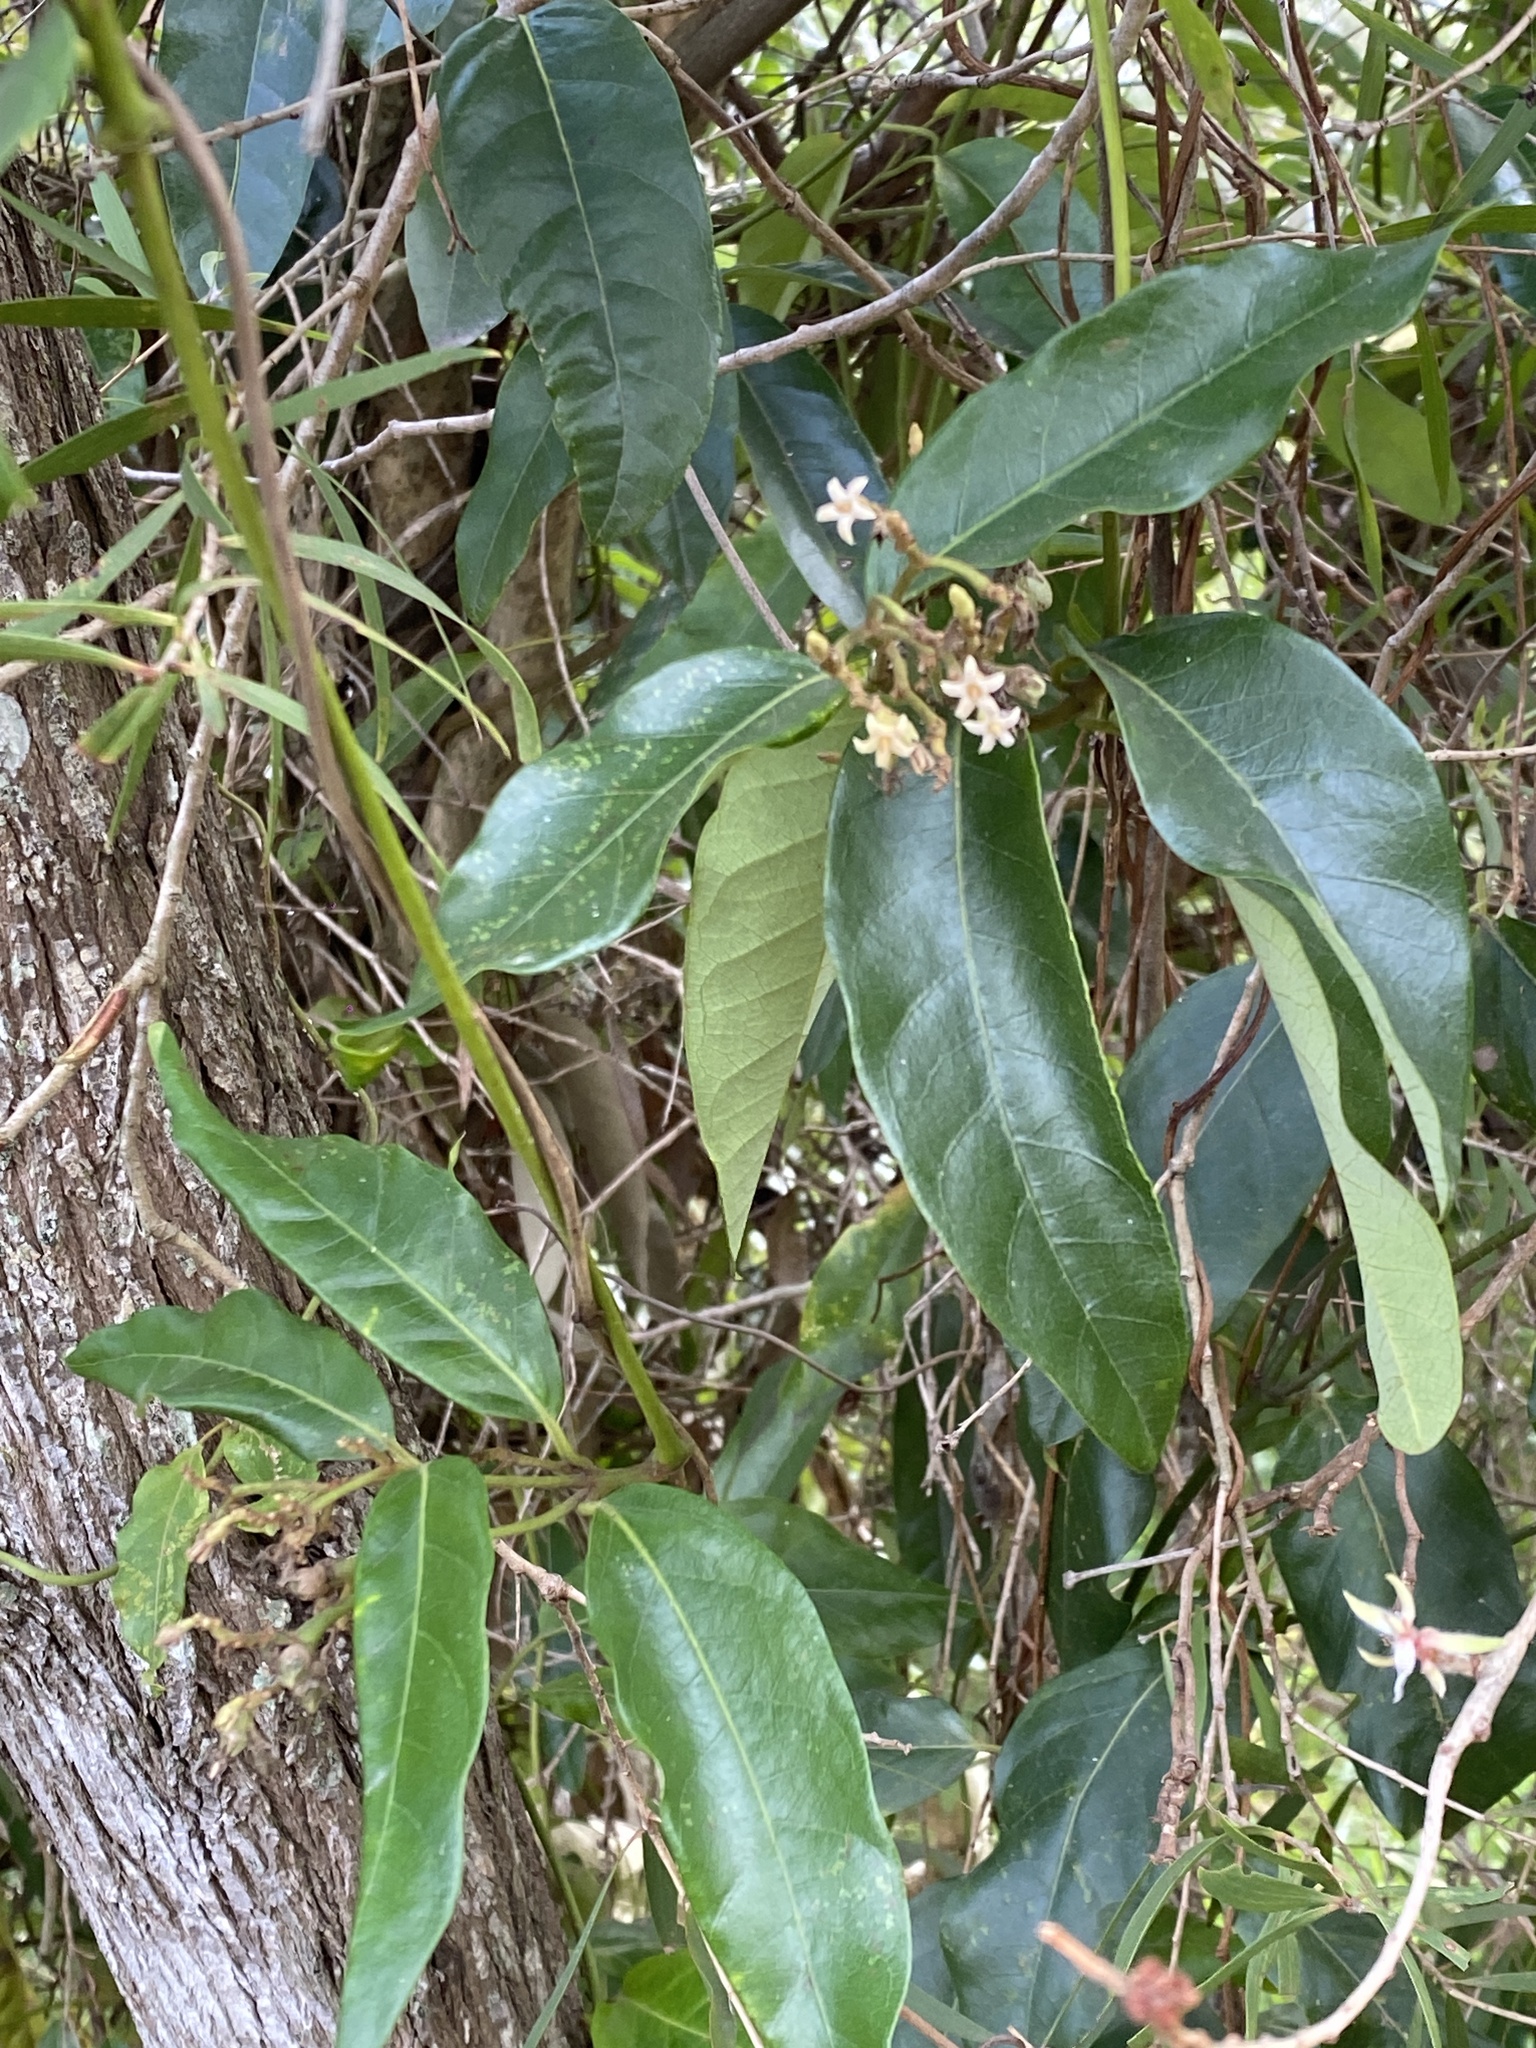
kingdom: Plantae
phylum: Tracheophyta
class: Magnoliopsida
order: Gentianales
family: Apocynaceae
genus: Parsonsia
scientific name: Parsonsia straminea
